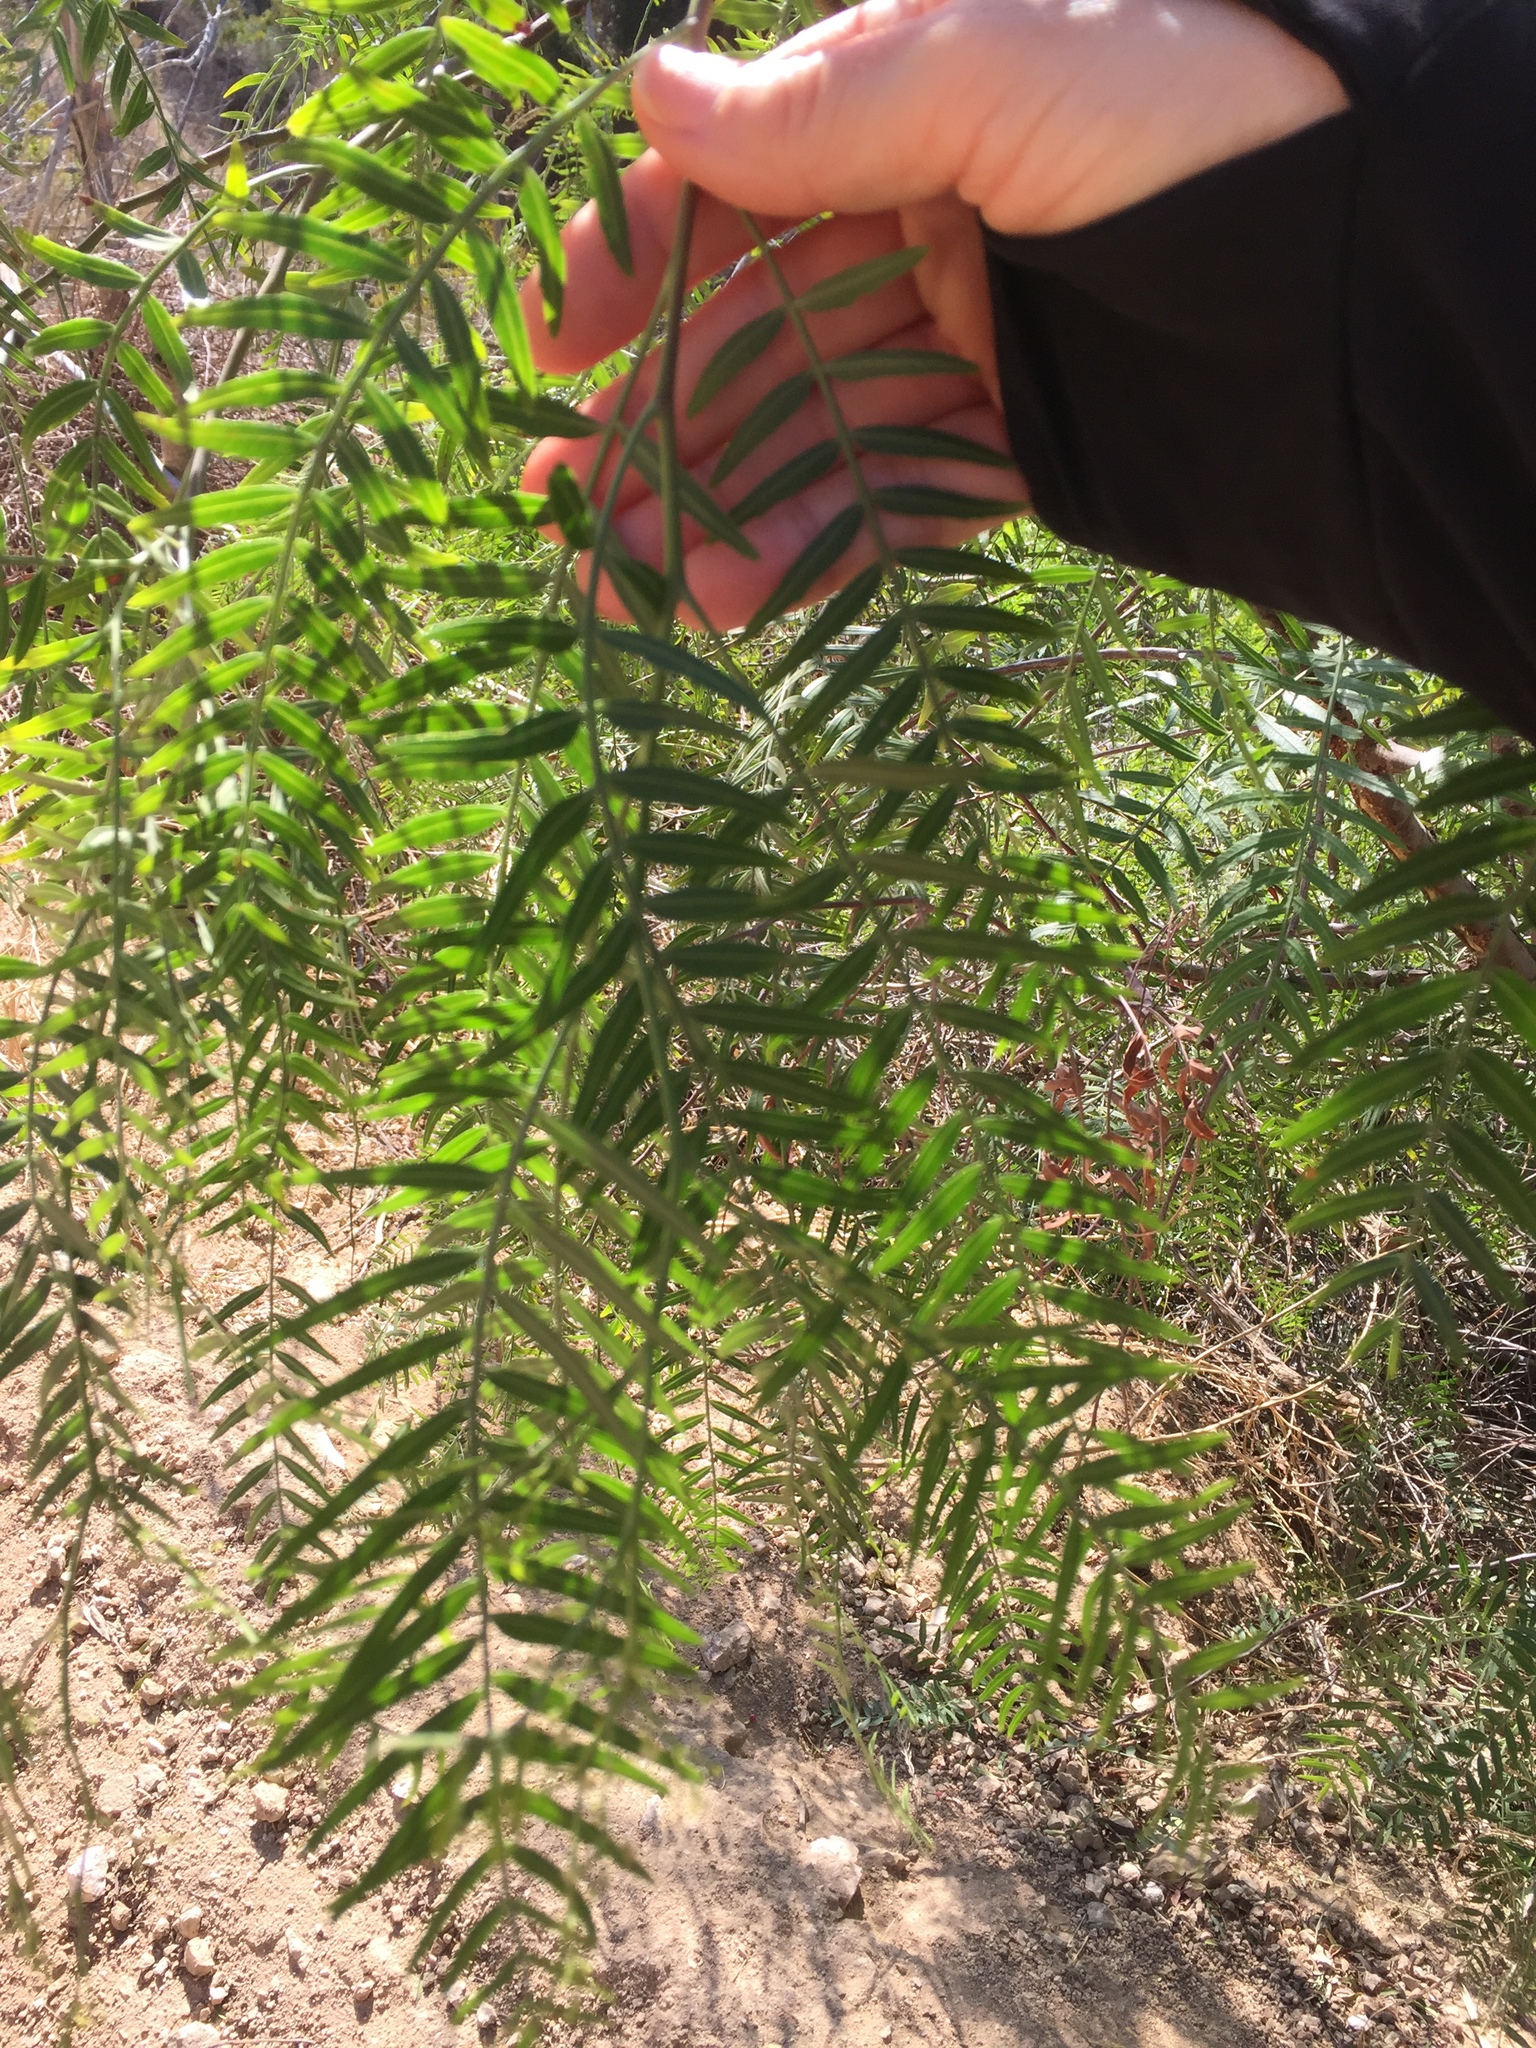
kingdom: Plantae
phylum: Tracheophyta
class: Magnoliopsida
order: Sapindales
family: Anacardiaceae
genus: Schinus
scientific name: Schinus molle
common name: Peruvian peppertree
